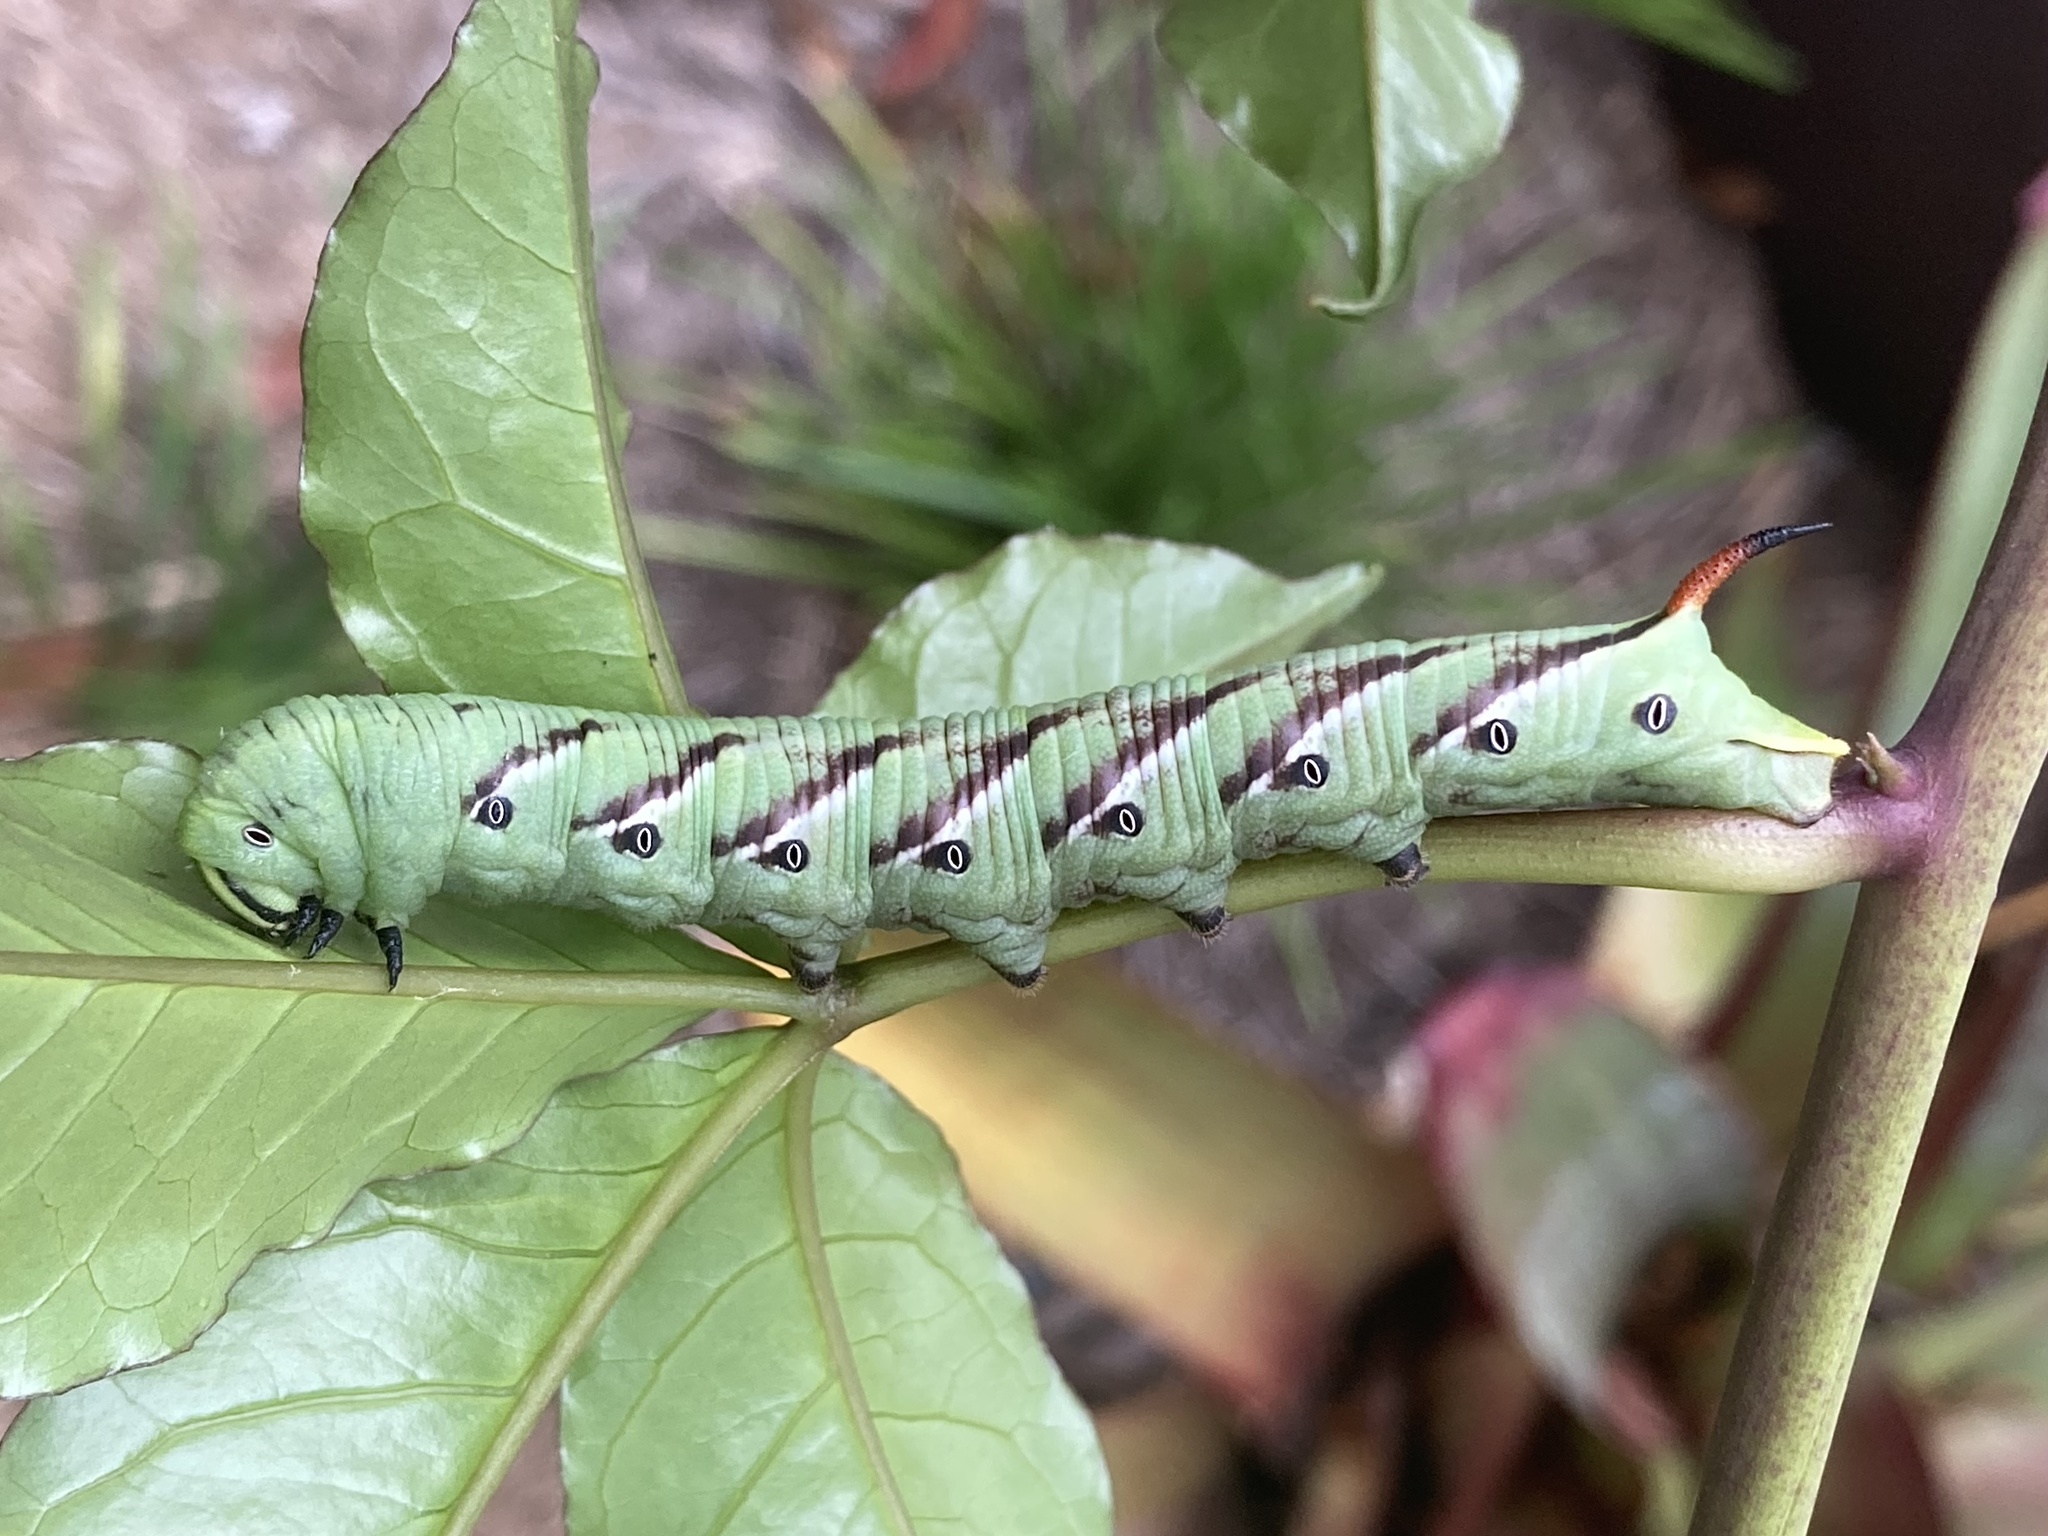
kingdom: Animalia
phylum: Arthropoda
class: Insecta
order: Lepidoptera
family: Sphingidae
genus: Agrius
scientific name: Agrius convolvuli
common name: Convolvulus hawkmoth
